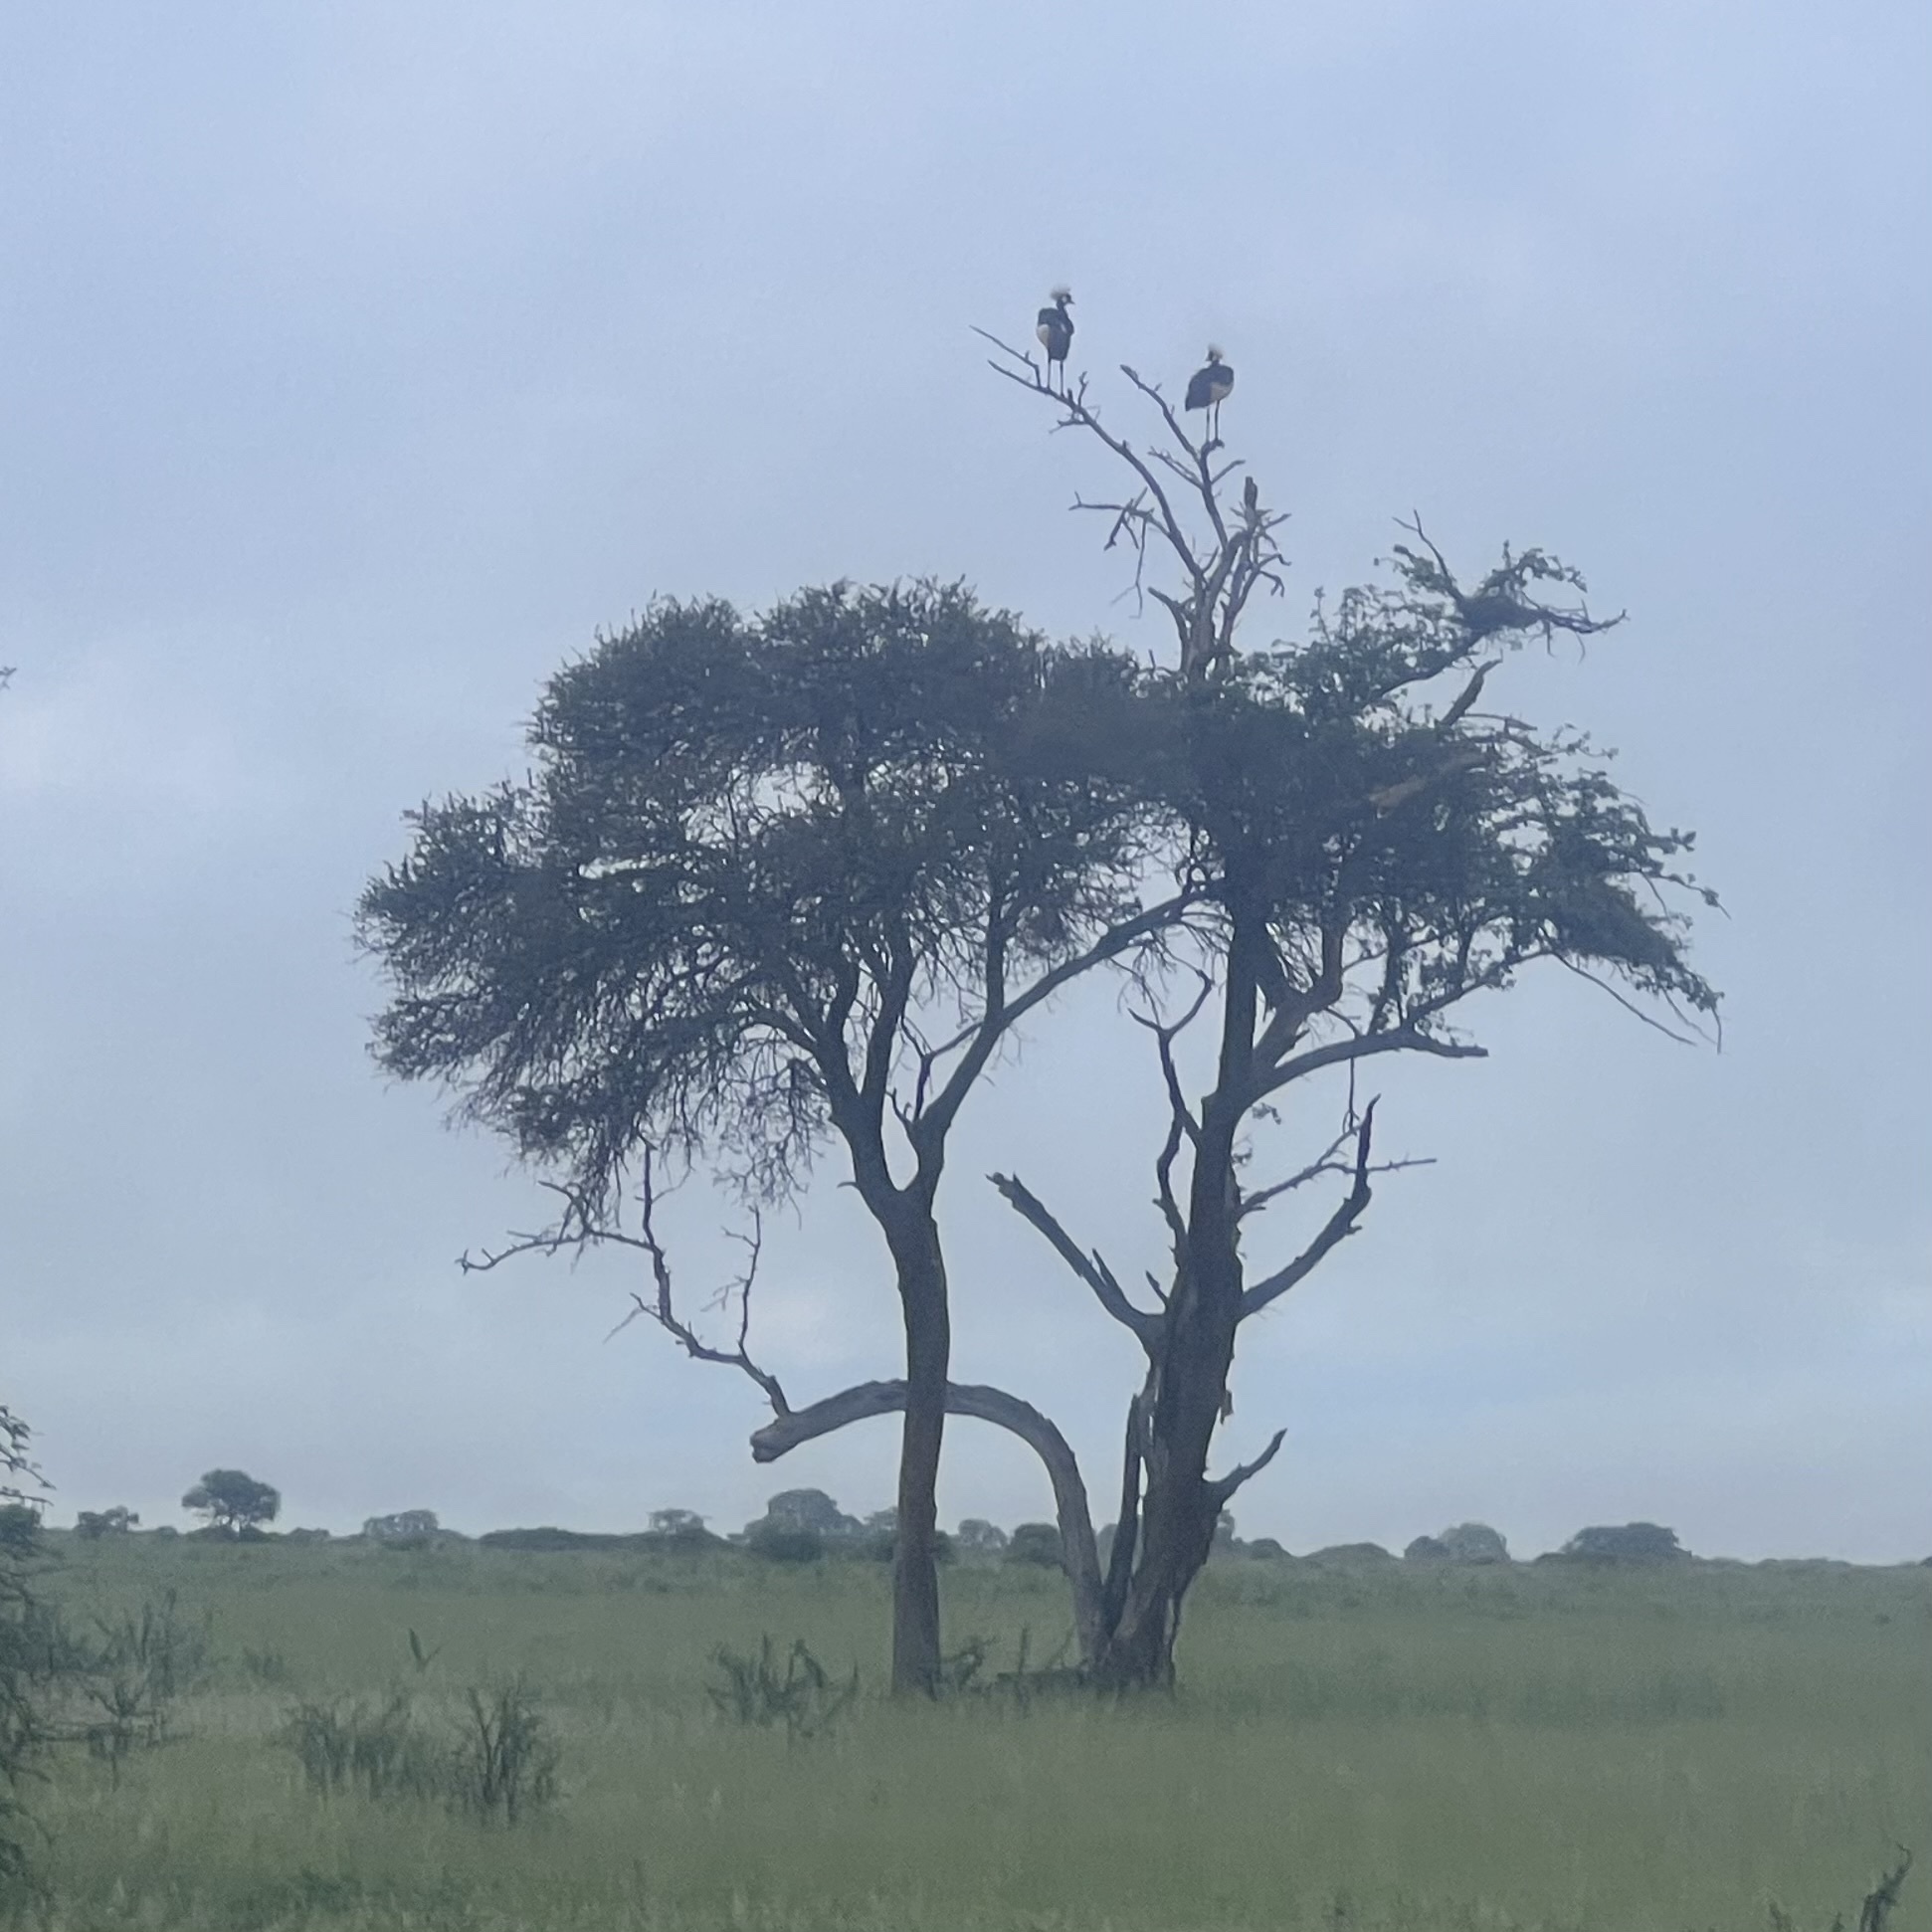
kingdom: Animalia
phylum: Chordata
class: Aves
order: Gruiformes
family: Gruidae
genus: Balearica
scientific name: Balearica regulorum
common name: Grey crowned crane
